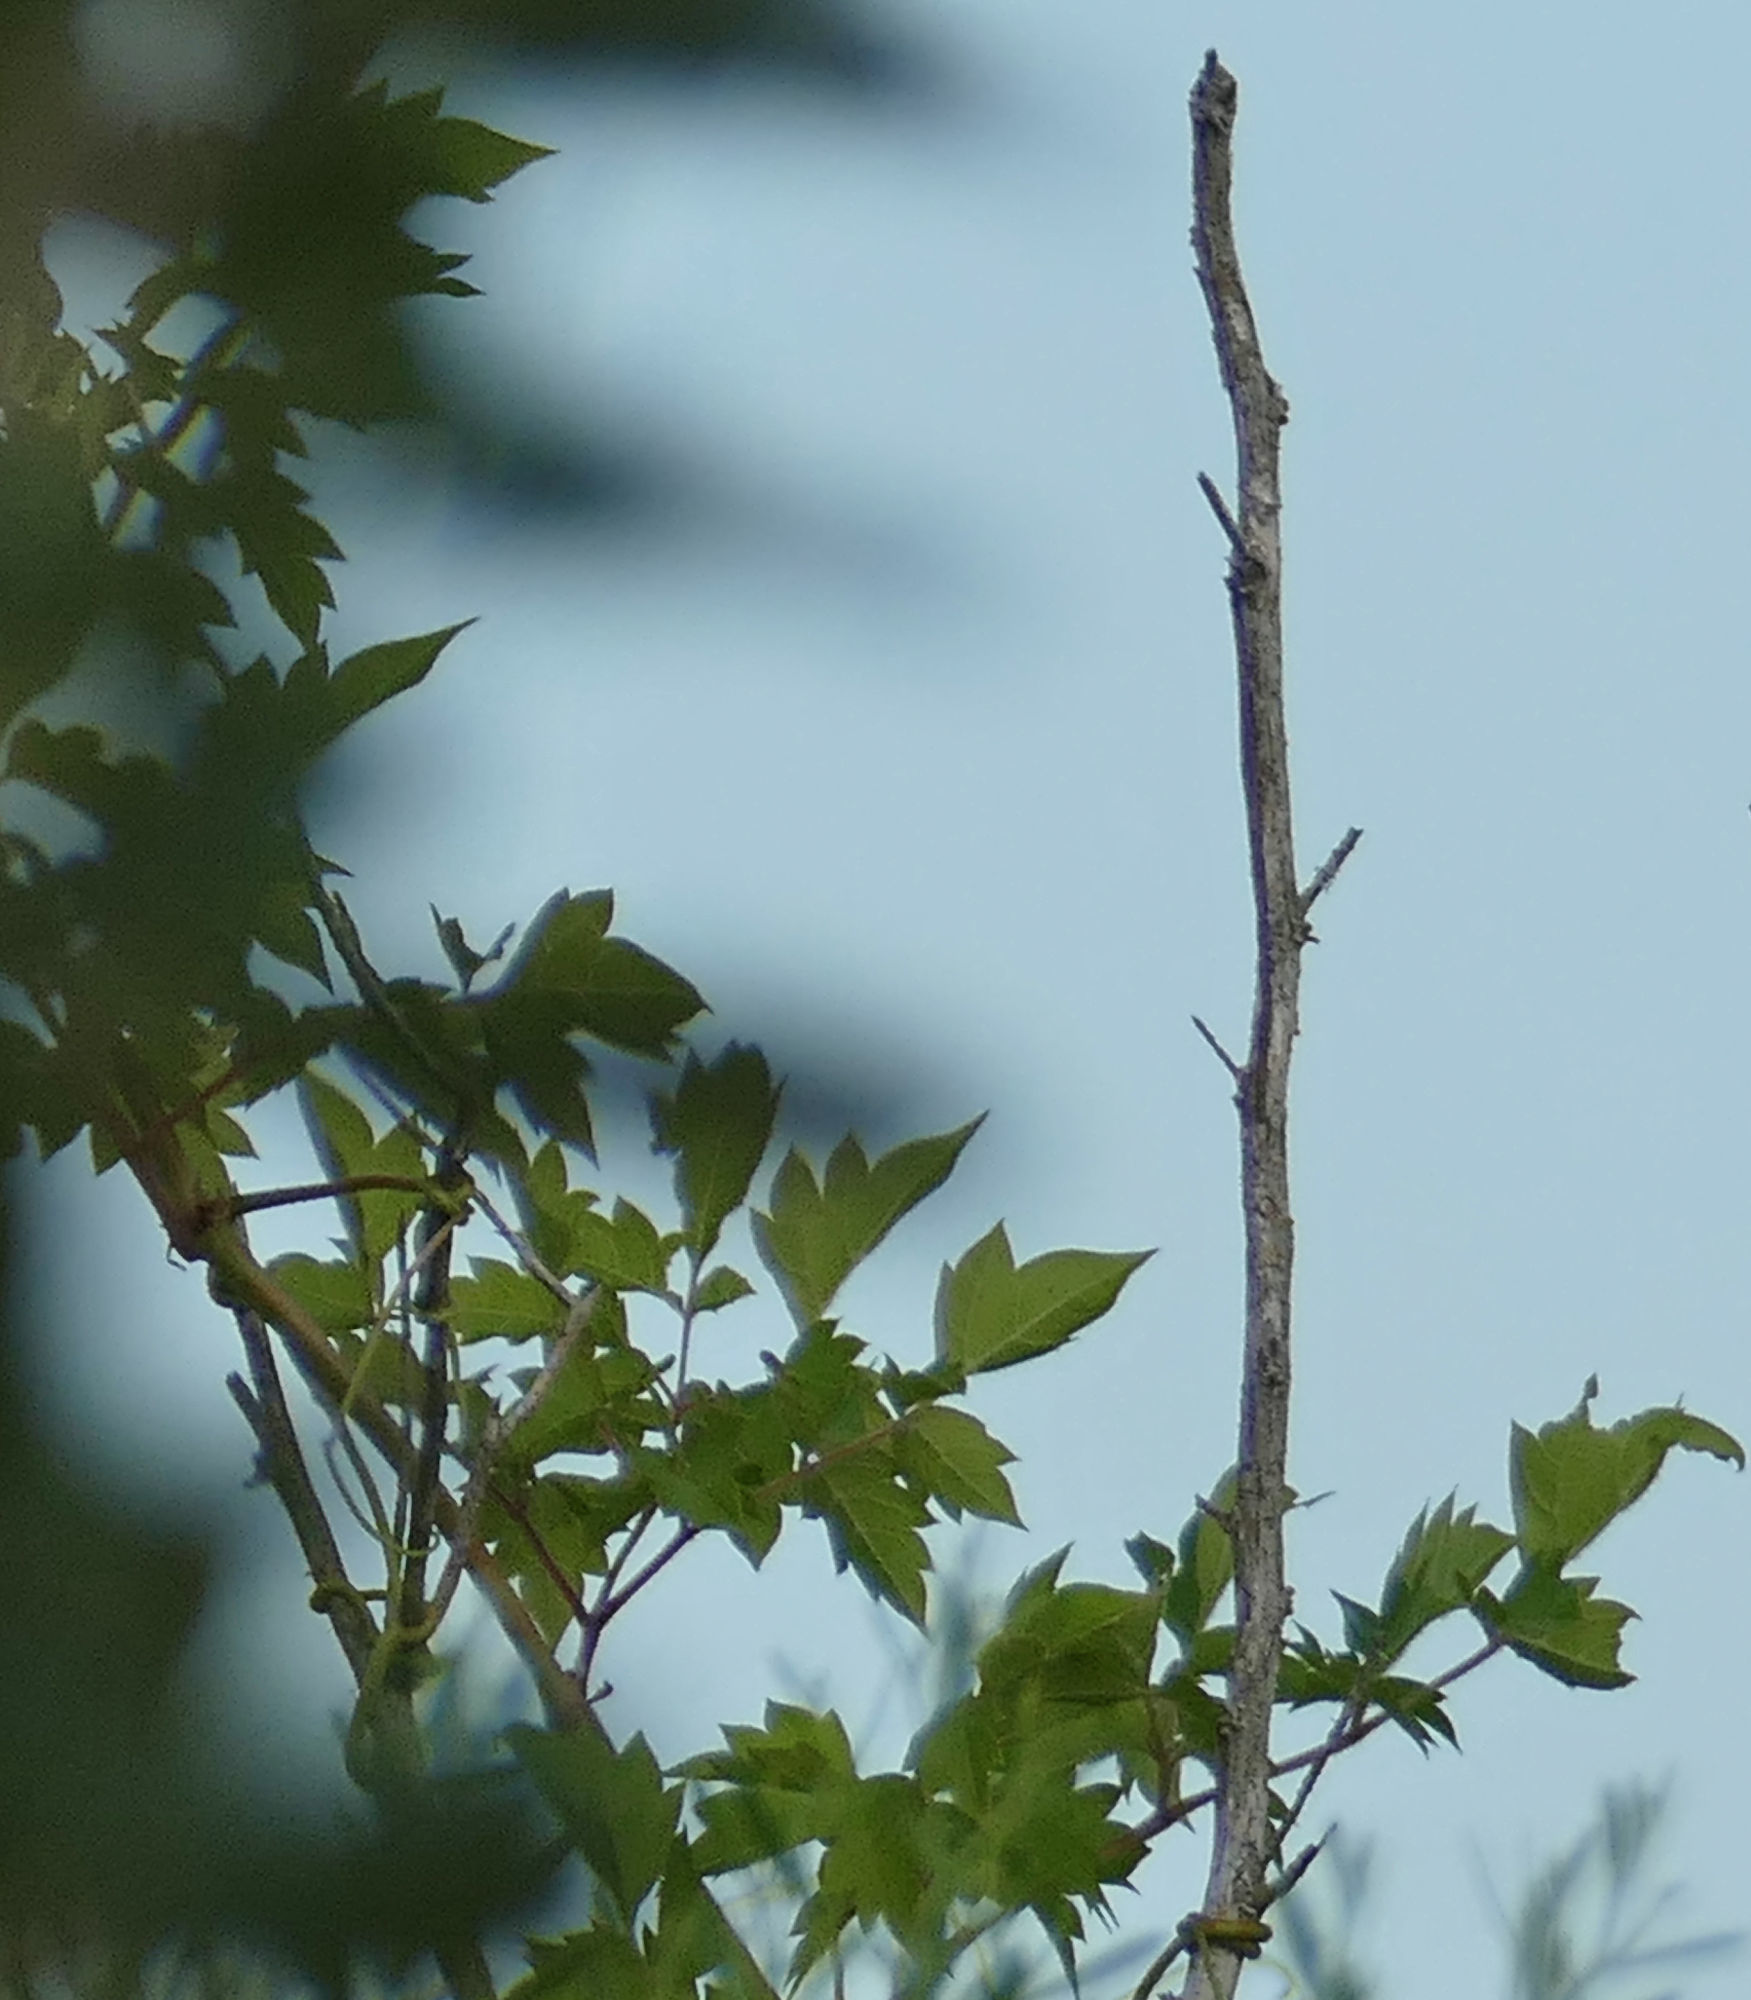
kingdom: Plantae
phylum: Tracheophyta
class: Magnoliopsida
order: Vitales
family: Vitaceae
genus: Nekemias
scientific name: Nekemias arborea
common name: Peppervine
